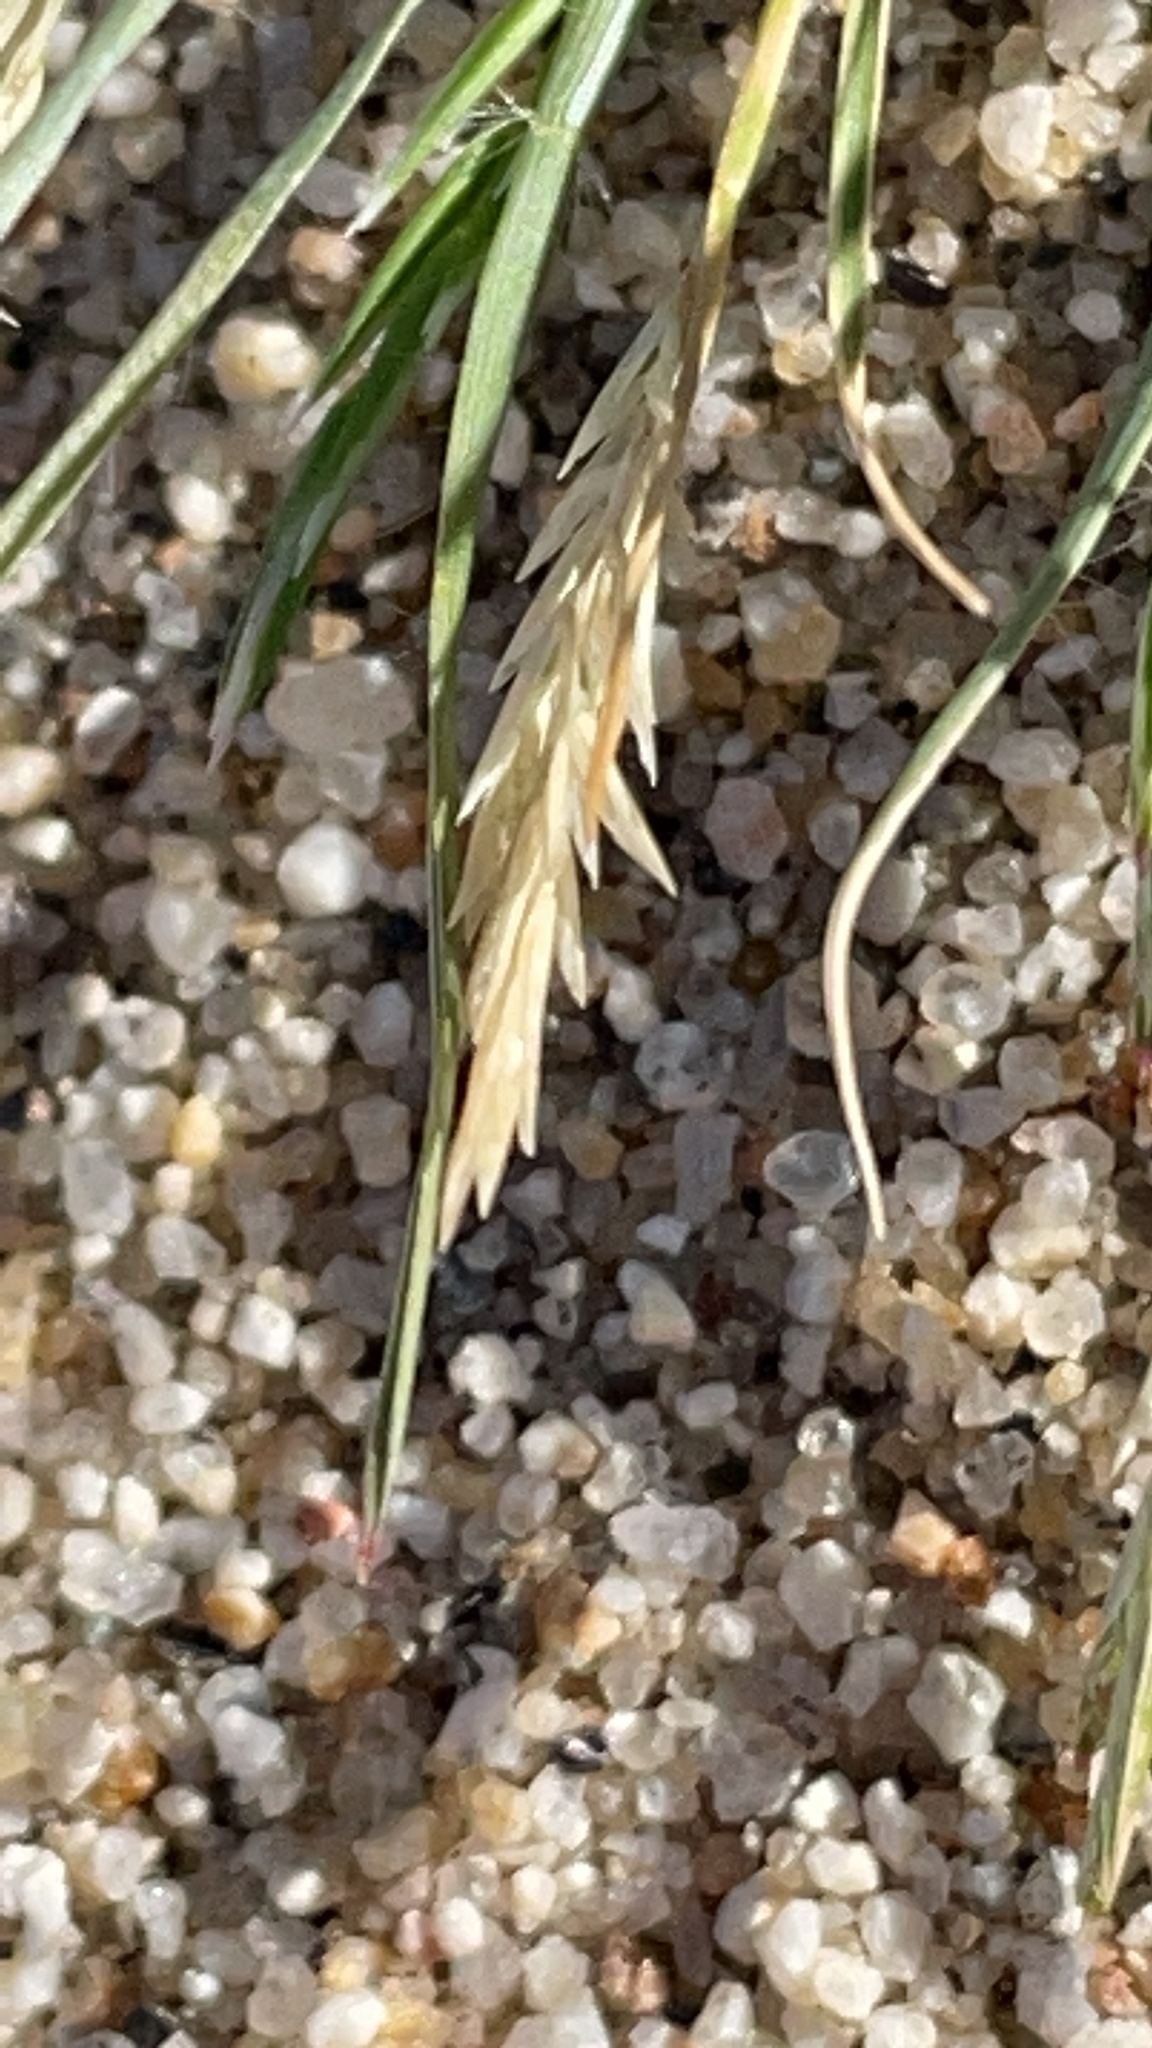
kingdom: Plantae
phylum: Tracheophyta
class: Liliopsida
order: Poales
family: Poaceae
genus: Schismus
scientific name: Schismus barbatus
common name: Kelch-grass
